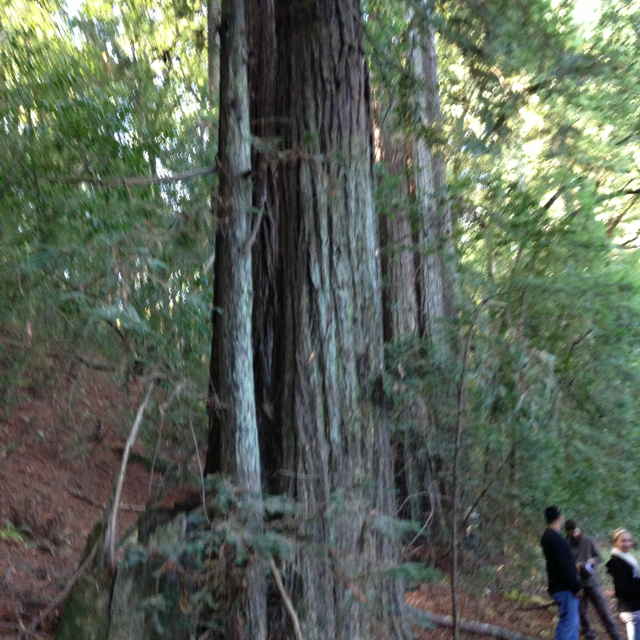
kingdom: Plantae
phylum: Tracheophyta
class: Pinopsida
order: Pinales
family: Cupressaceae
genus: Sequoia
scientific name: Sequoia sempervirens
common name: Coast redwood
